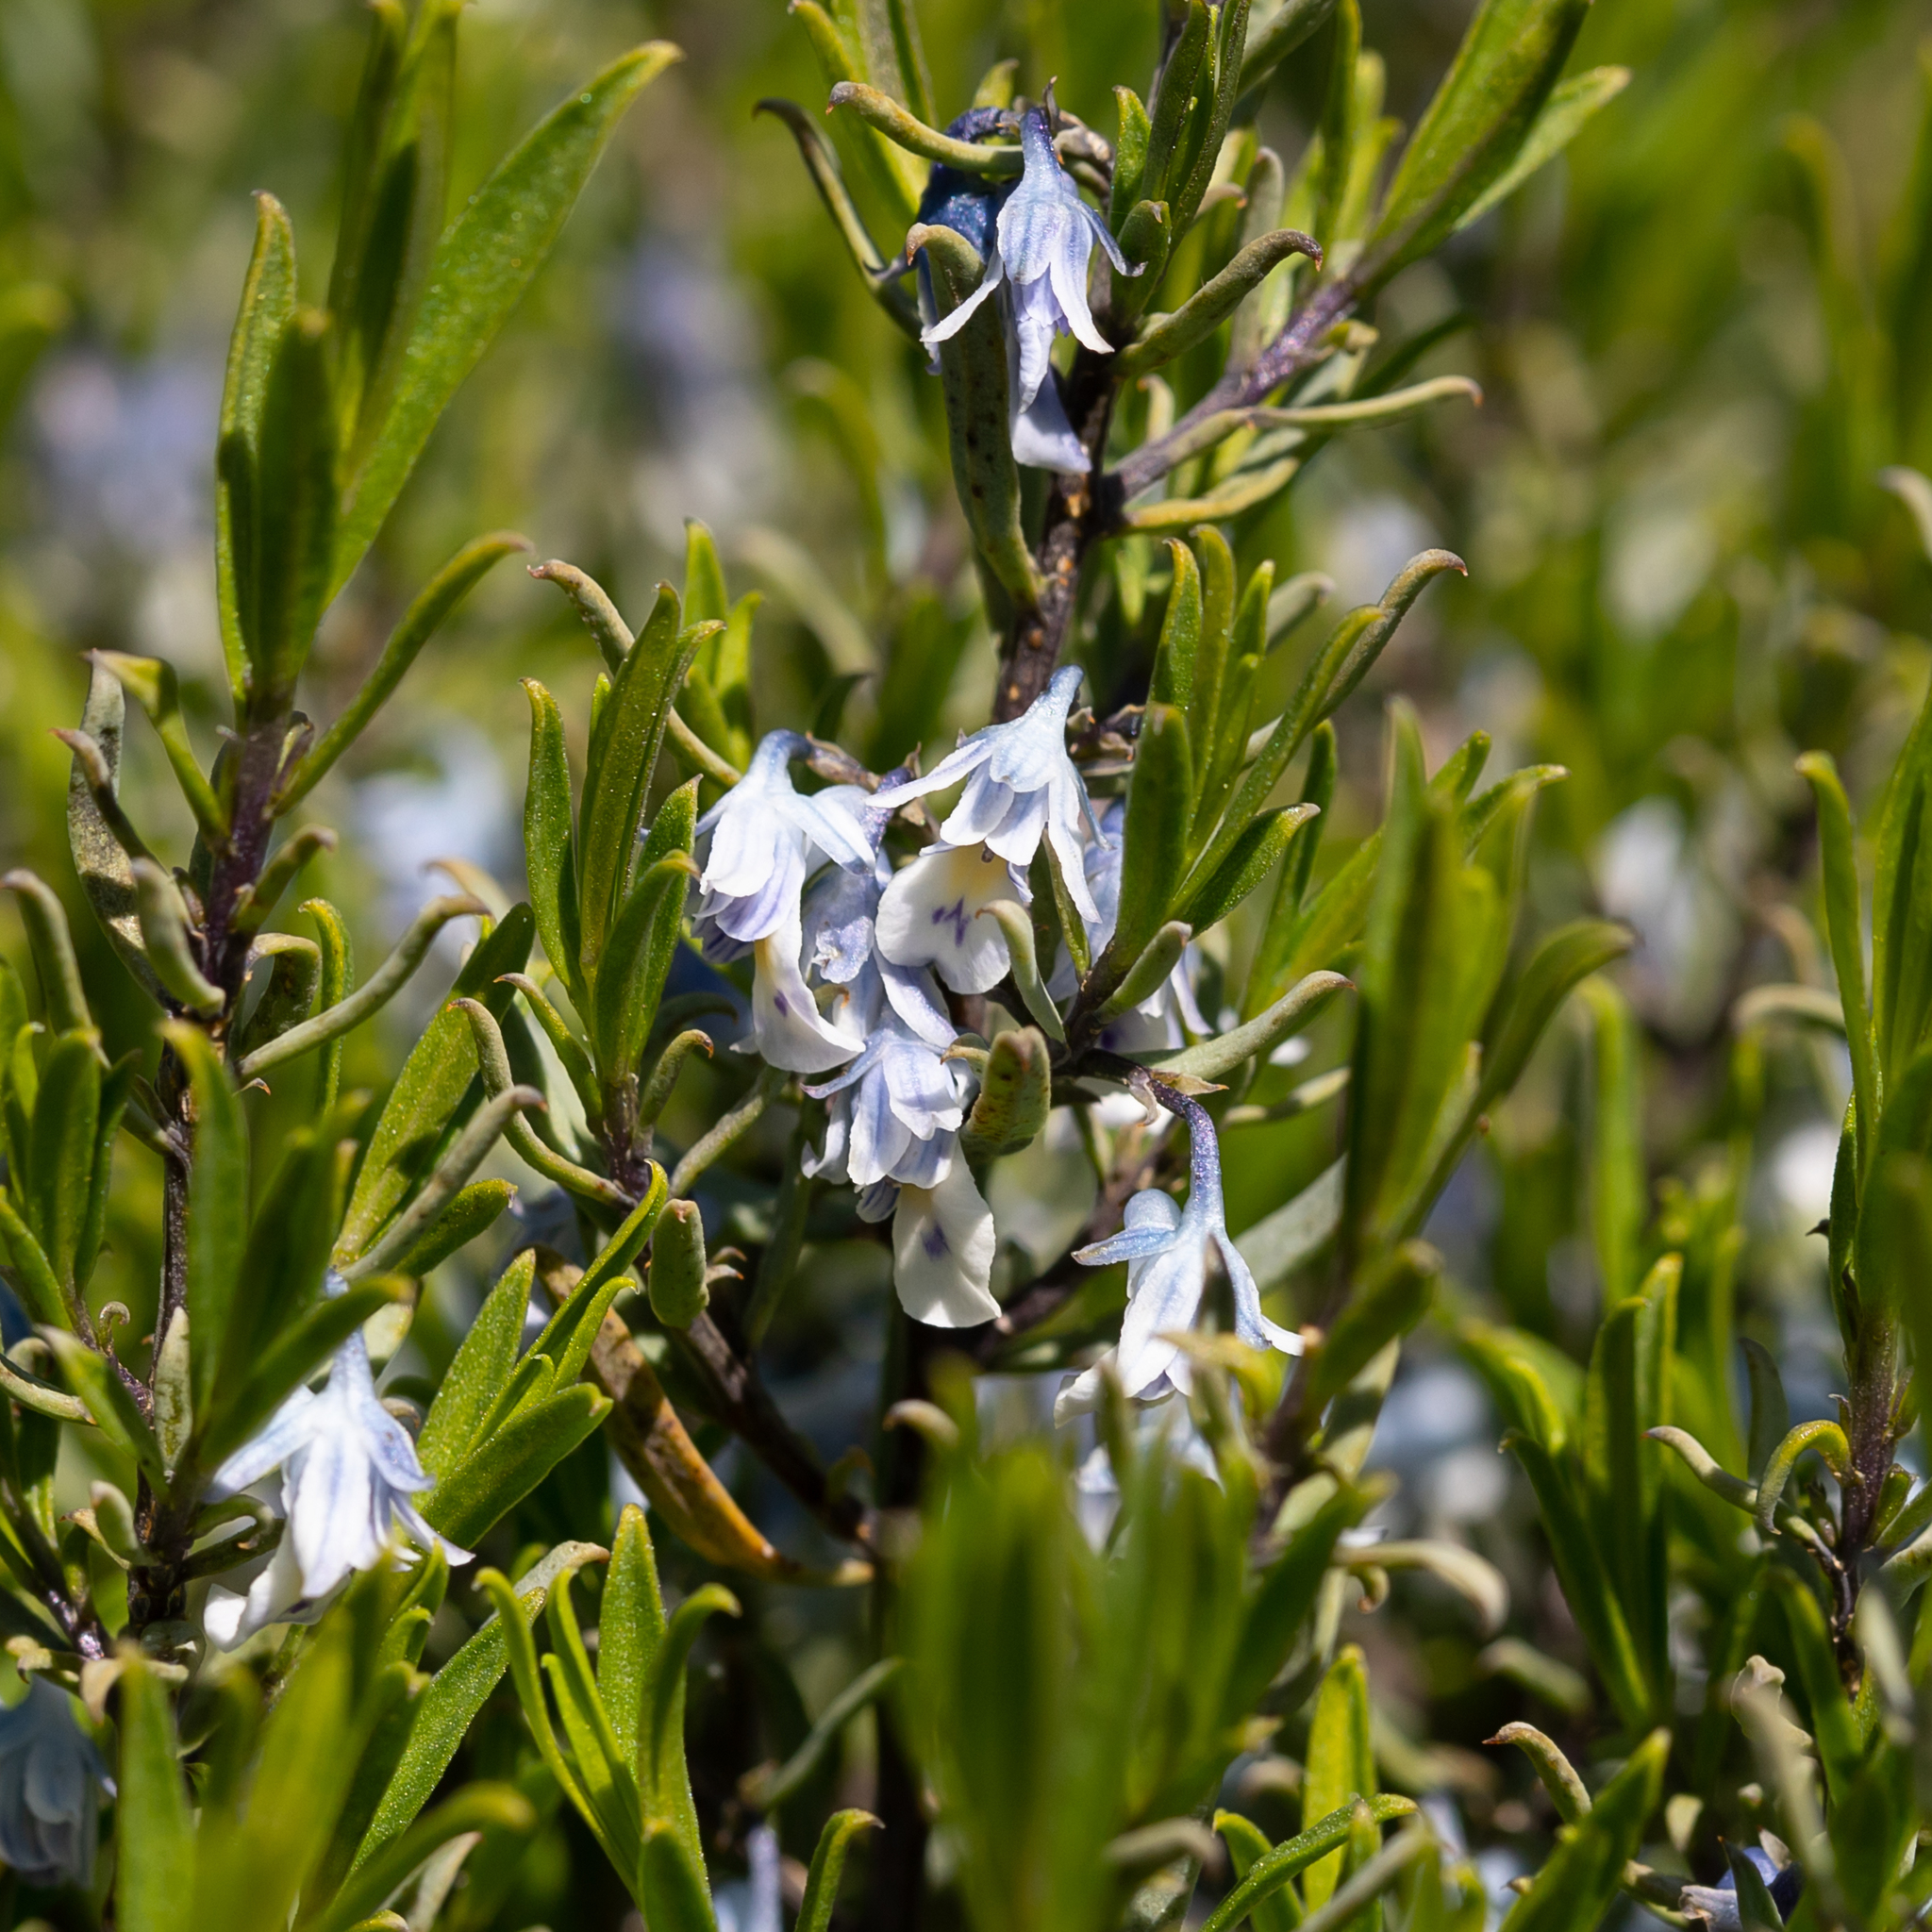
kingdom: Plantae
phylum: Tracheophyta
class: Magnoliopsida
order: Malpighiales
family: Violaceae
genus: Pigea
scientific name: Pigea floribunda
